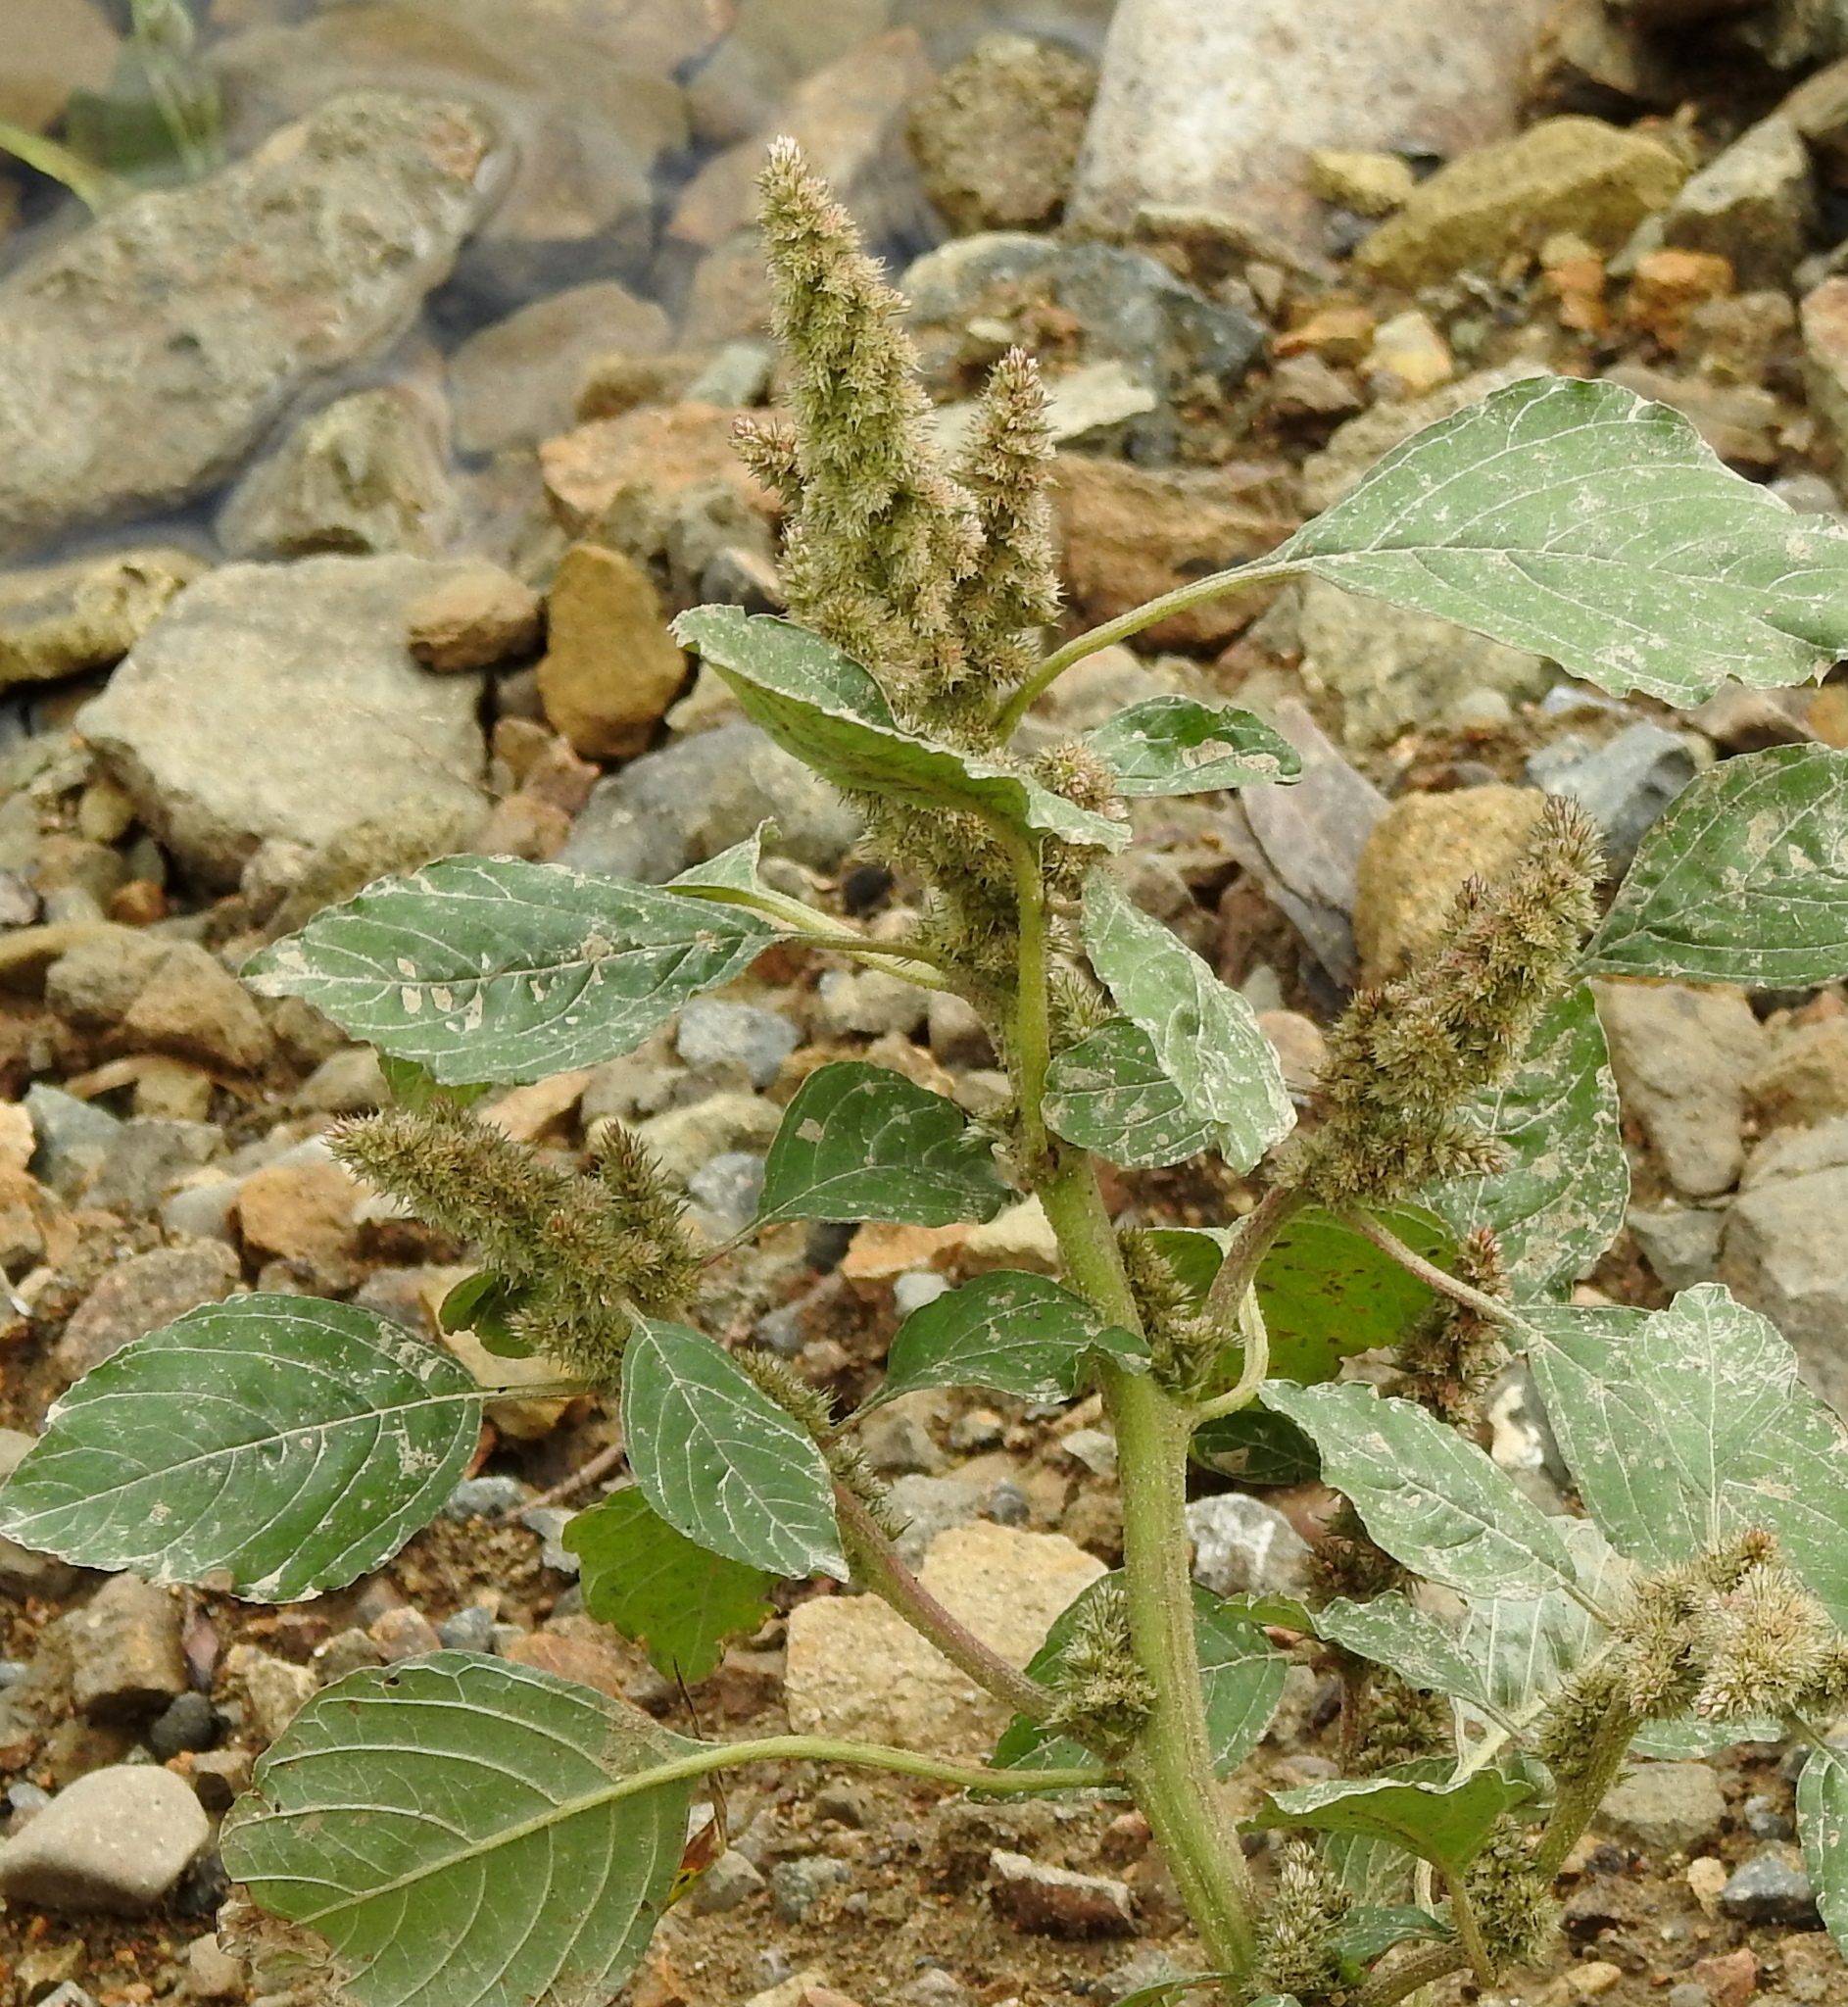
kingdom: Plantae
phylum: Tracheophyta
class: Magnoliopsida
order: Caryophyllales
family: Amaranthaceae
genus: Amaranthus
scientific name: Amaranthus retroflexus
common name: Redroot amaranth
